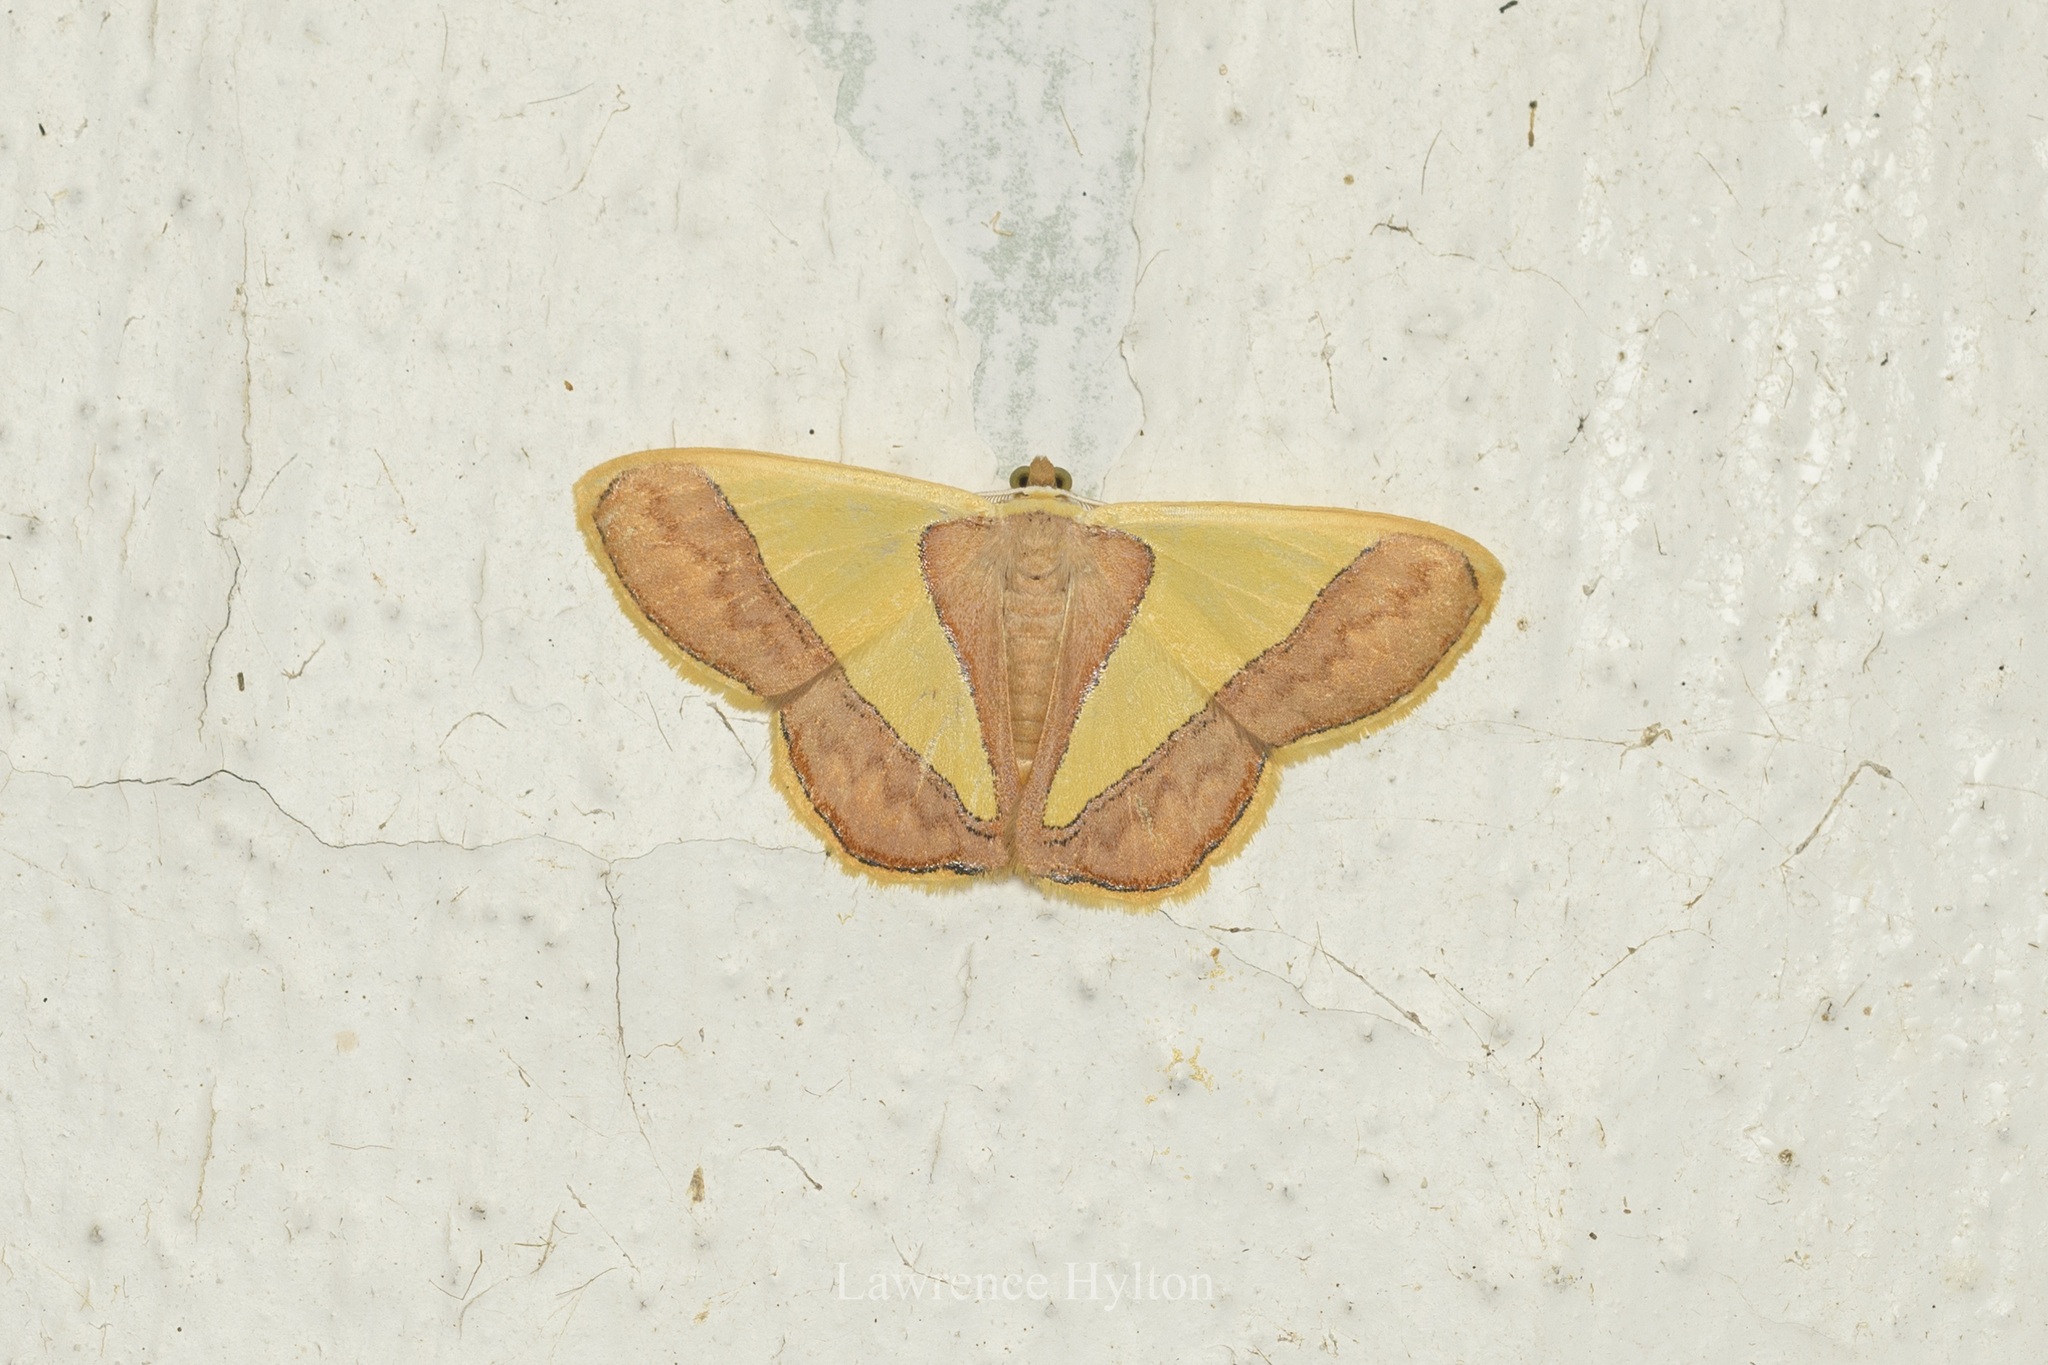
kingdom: Animalia
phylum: Arthropoda
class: Insecta
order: Lepidoptera
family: Geometridae
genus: Plutodes
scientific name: Plutodes exquisita
